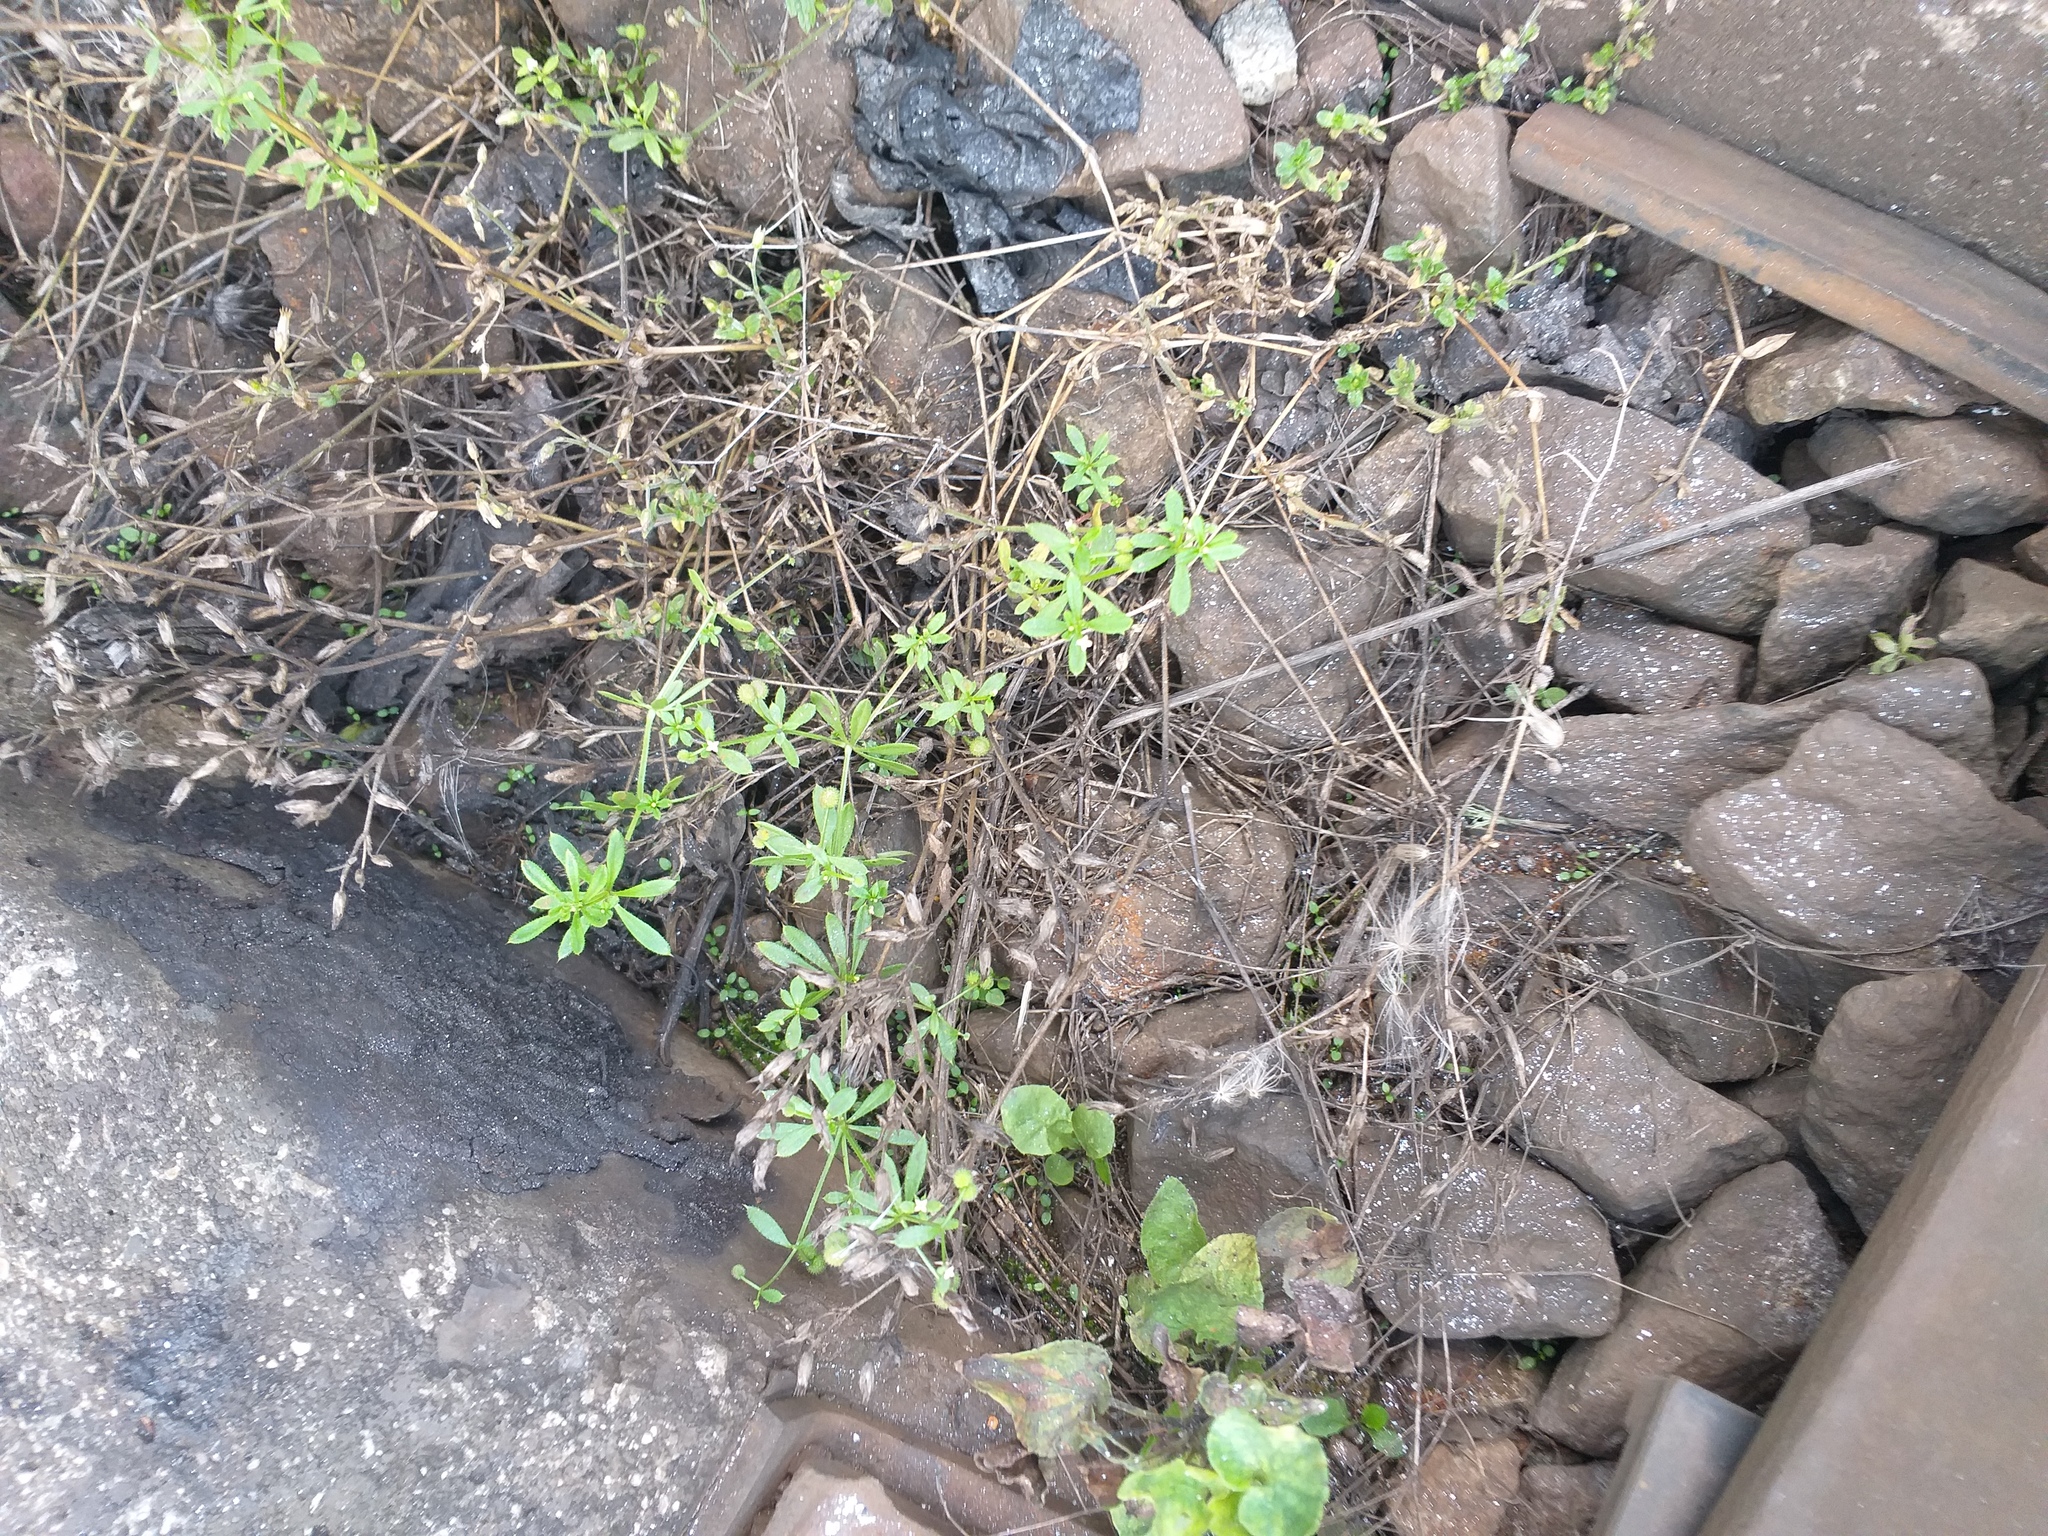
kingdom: Plantae
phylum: Tracheophyta
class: Magnoliopsida
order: Gentianales
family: Rubiaceae
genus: Galium
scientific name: Galium
